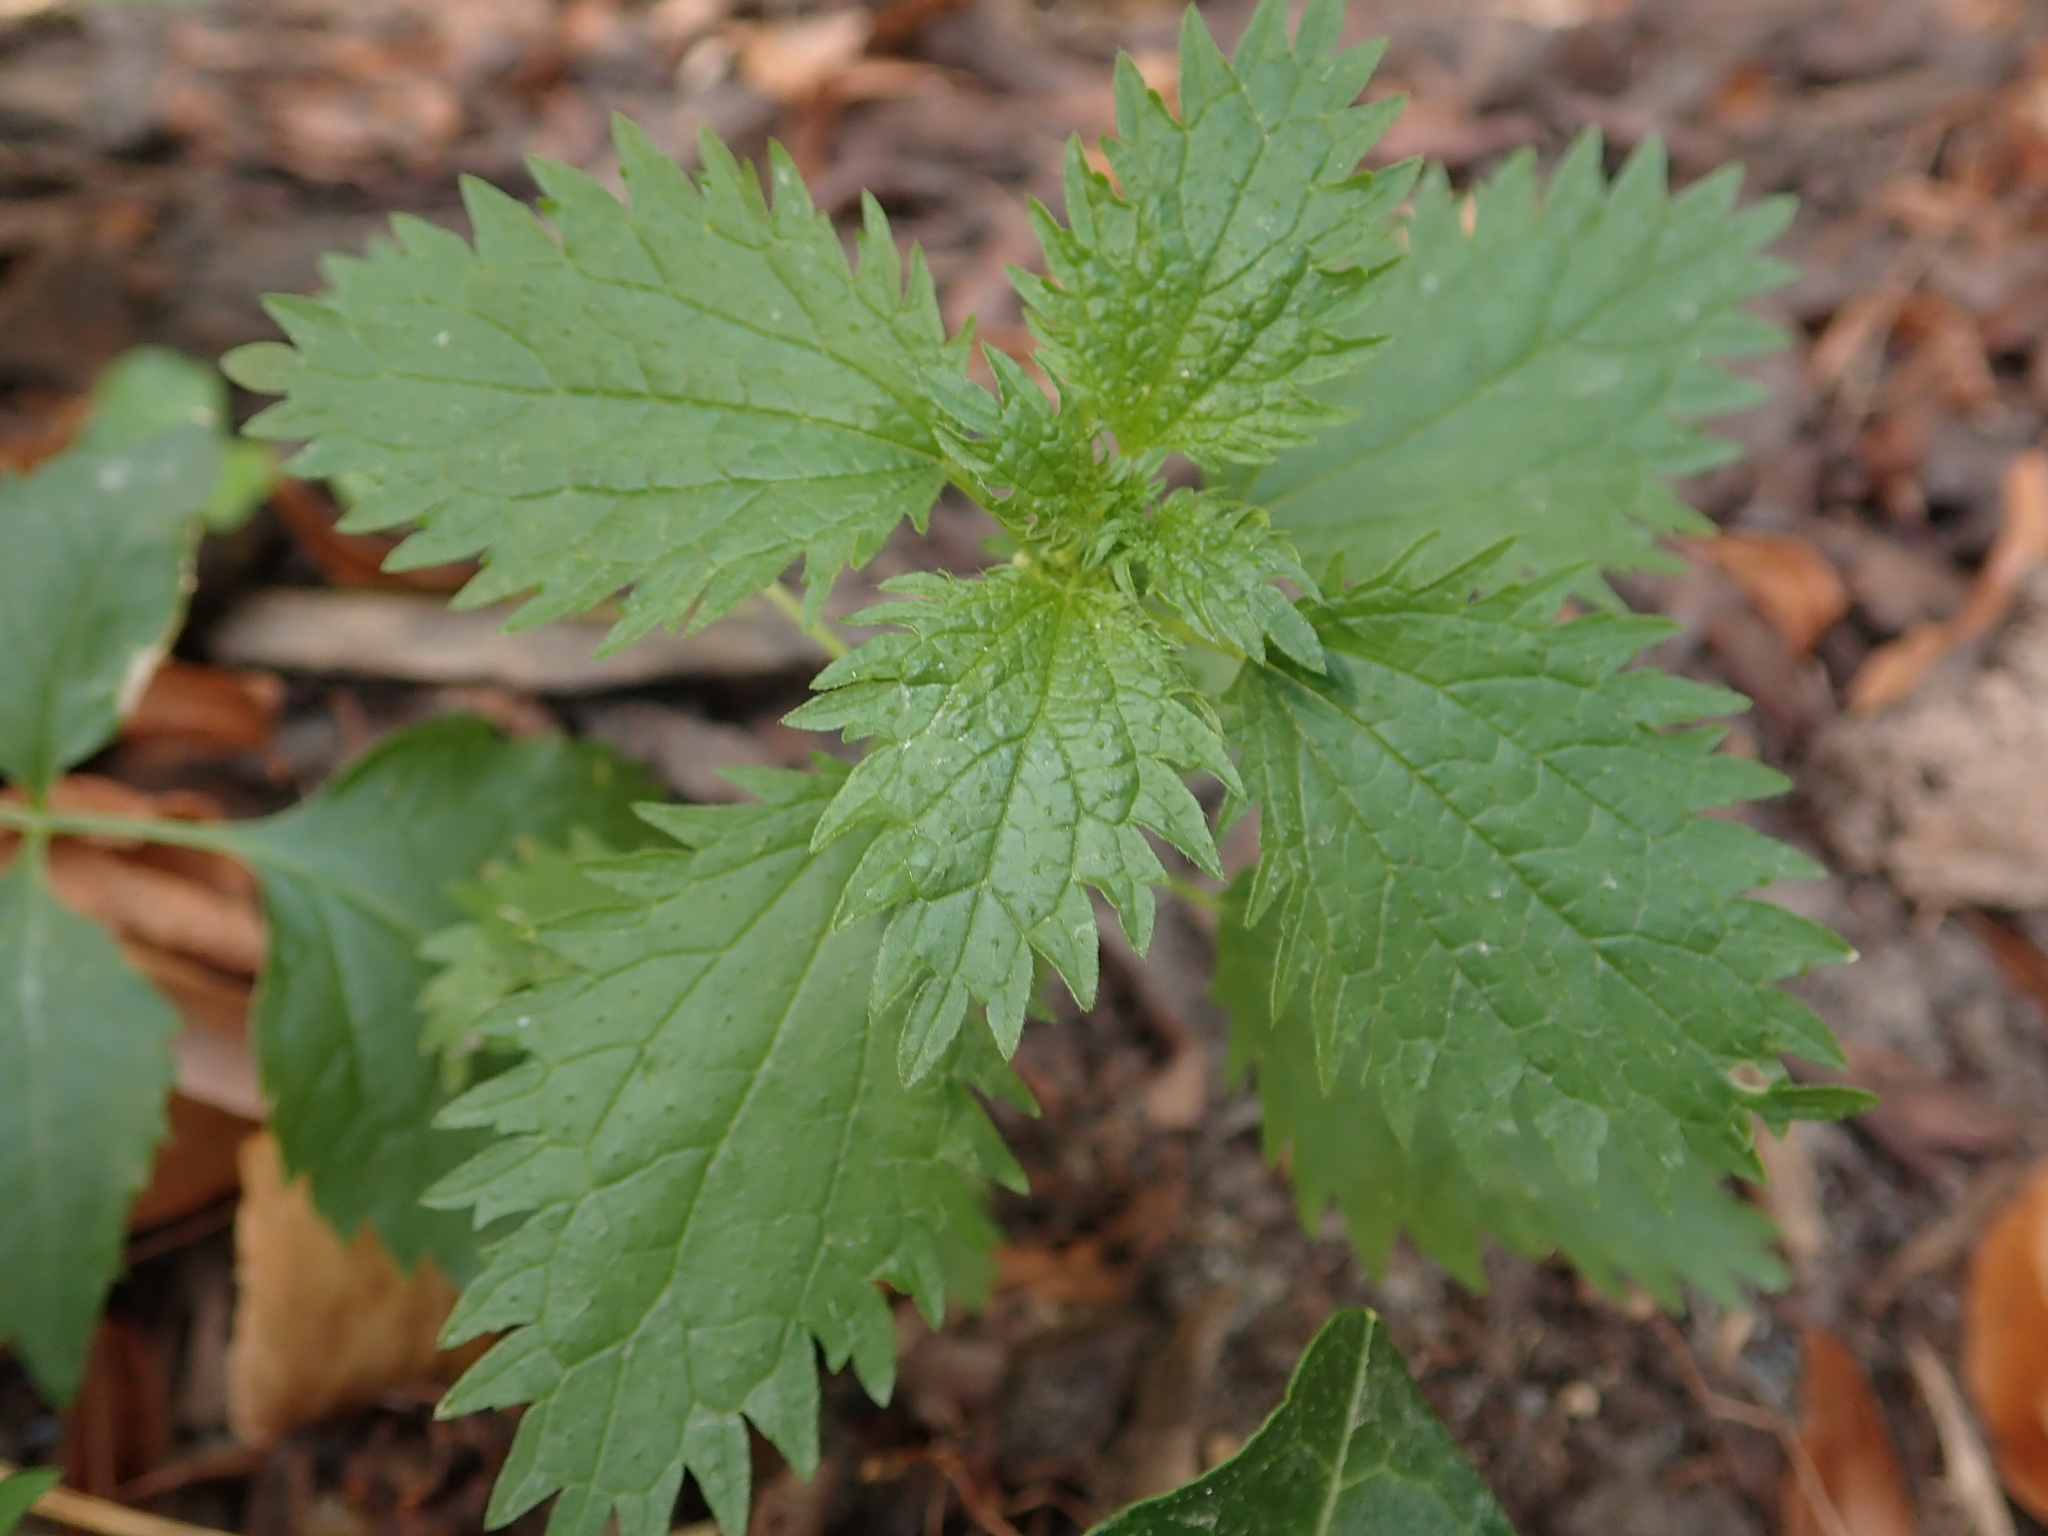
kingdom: Plantae
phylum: Tracheophyta
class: Magnoliopsida
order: Rosales
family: Urticaceae
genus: Urtica
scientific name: Urtica urens
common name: Dwarf nettle
